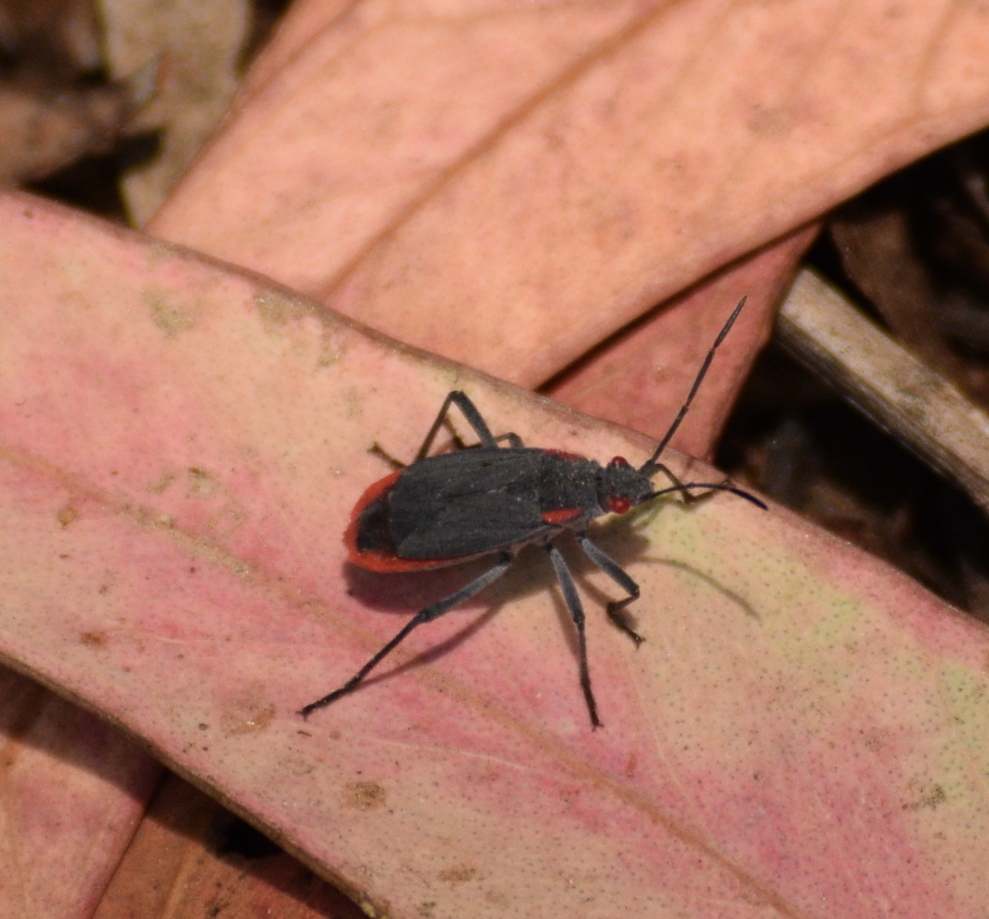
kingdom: Animalia
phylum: Arthropoda
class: Insecta
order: Hemiptera
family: Rhopalidae
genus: Jadera
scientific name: Jadera haematoloma
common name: Red-shouldered bug
